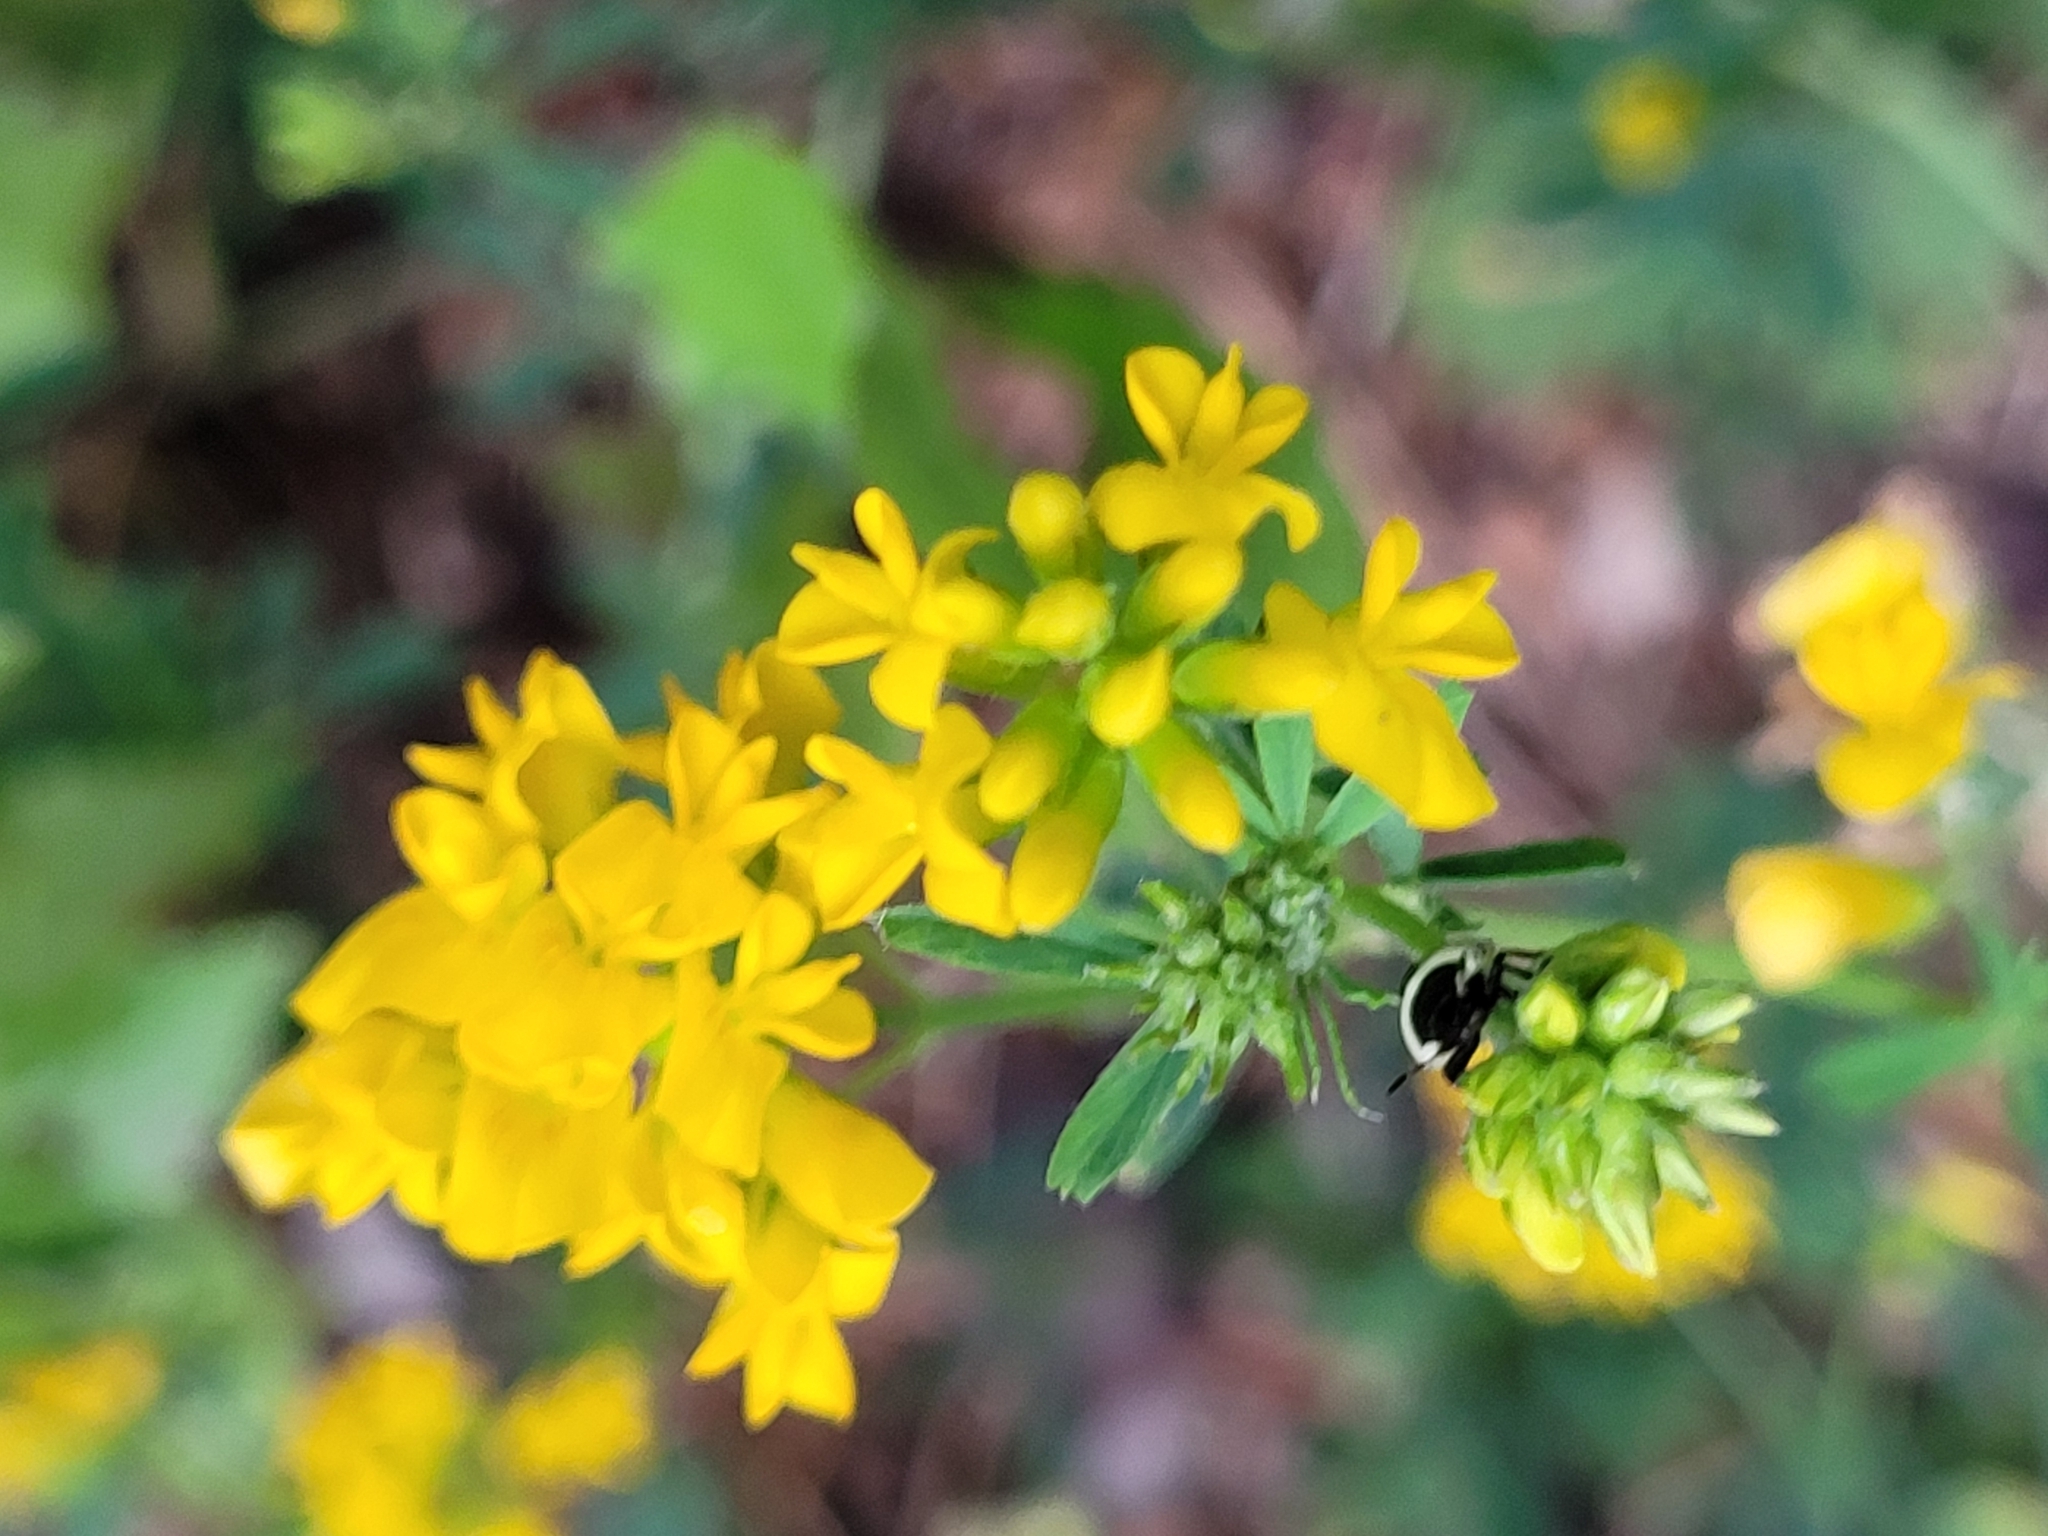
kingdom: Plantae
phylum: Tracheophyta
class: Magnoliopsida
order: Fabales
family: Fabaceae
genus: Medicago
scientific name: Medicago falcata
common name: Sickle medick
